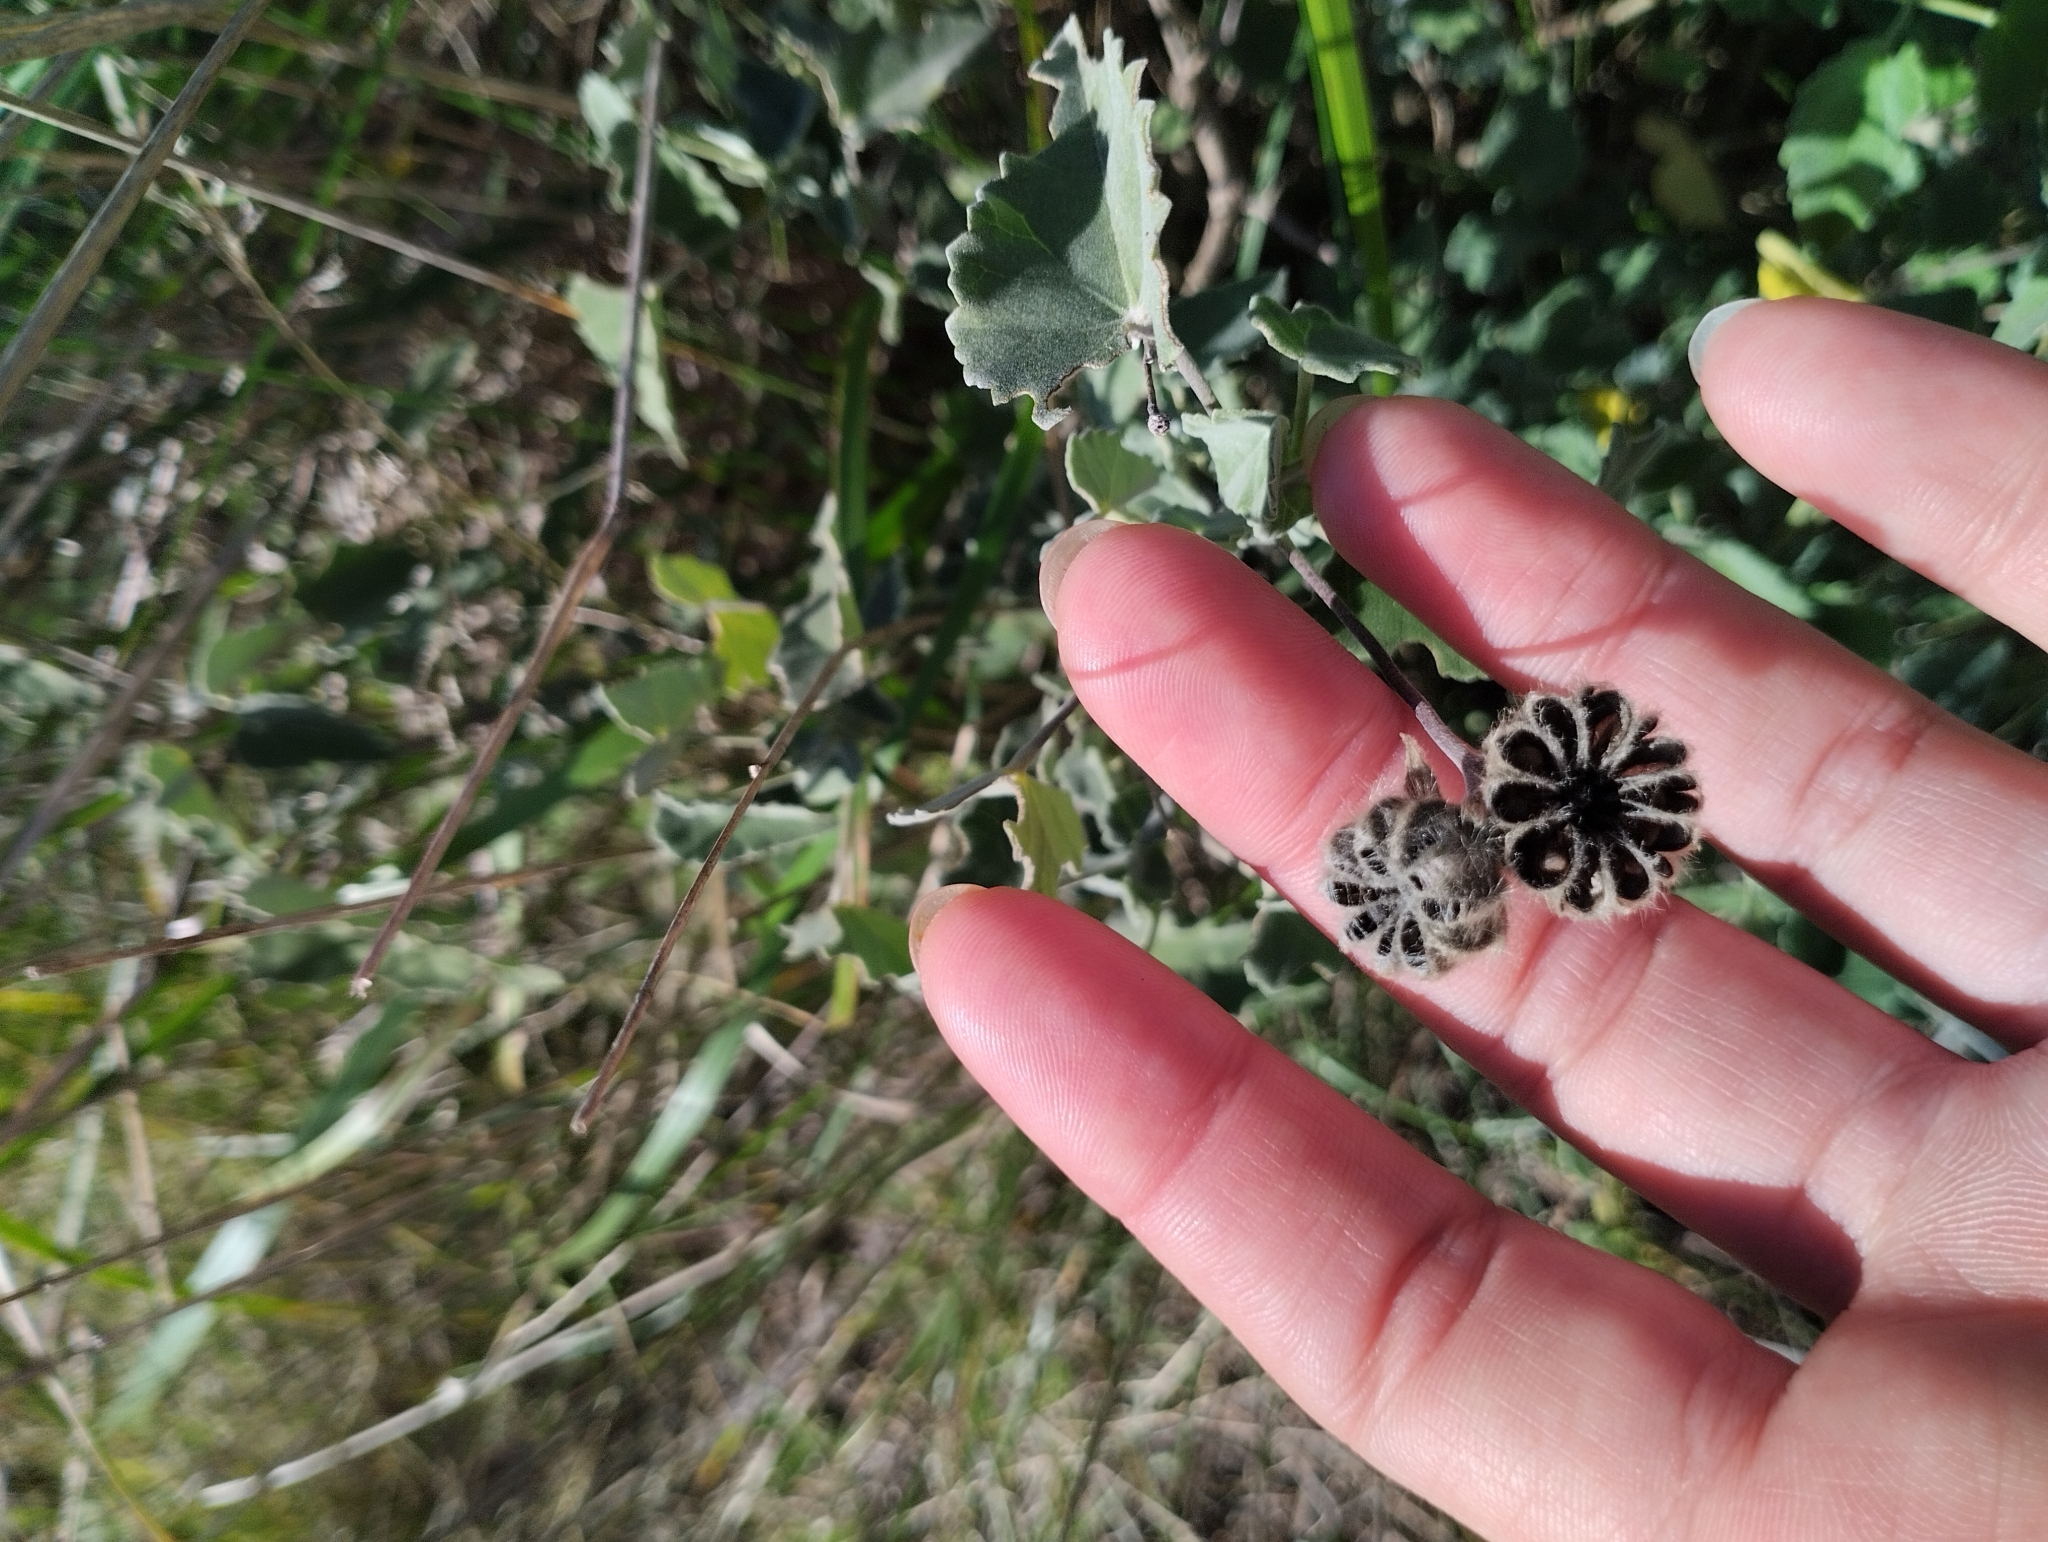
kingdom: Plantae
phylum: Tracheophyta
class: Magnoliopsida
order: Malvales
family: Malvaceae
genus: Abutilon
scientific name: Abutilon terminale
